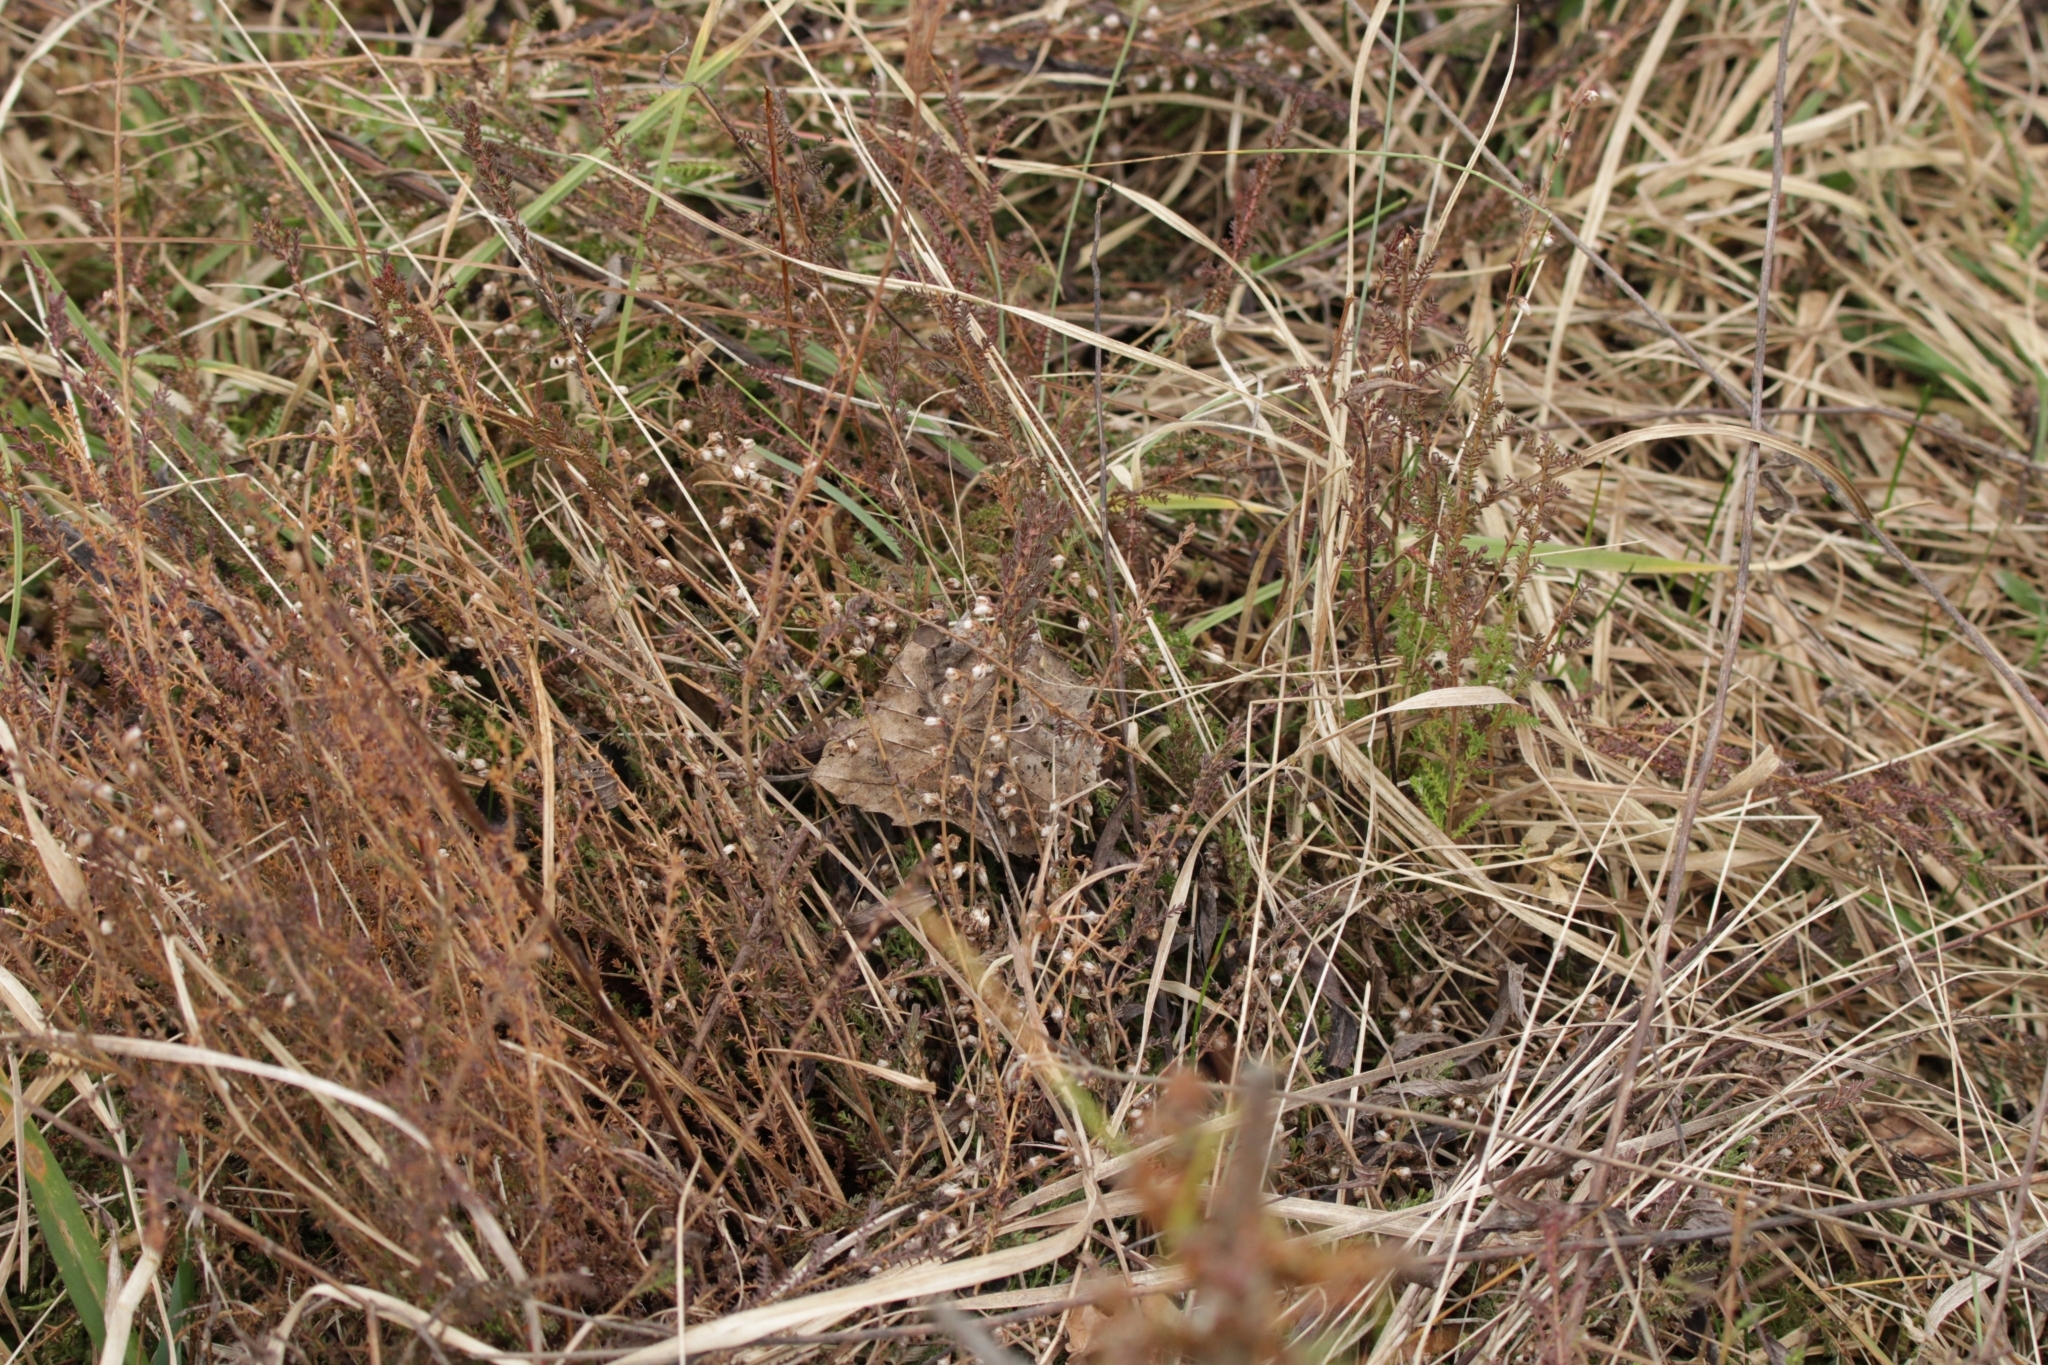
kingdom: Plantae
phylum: Tracheophyta
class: Magnoliopsida
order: Ericales
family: Ericaceae
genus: Calluna
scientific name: Calluna vulgaris
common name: Heather
